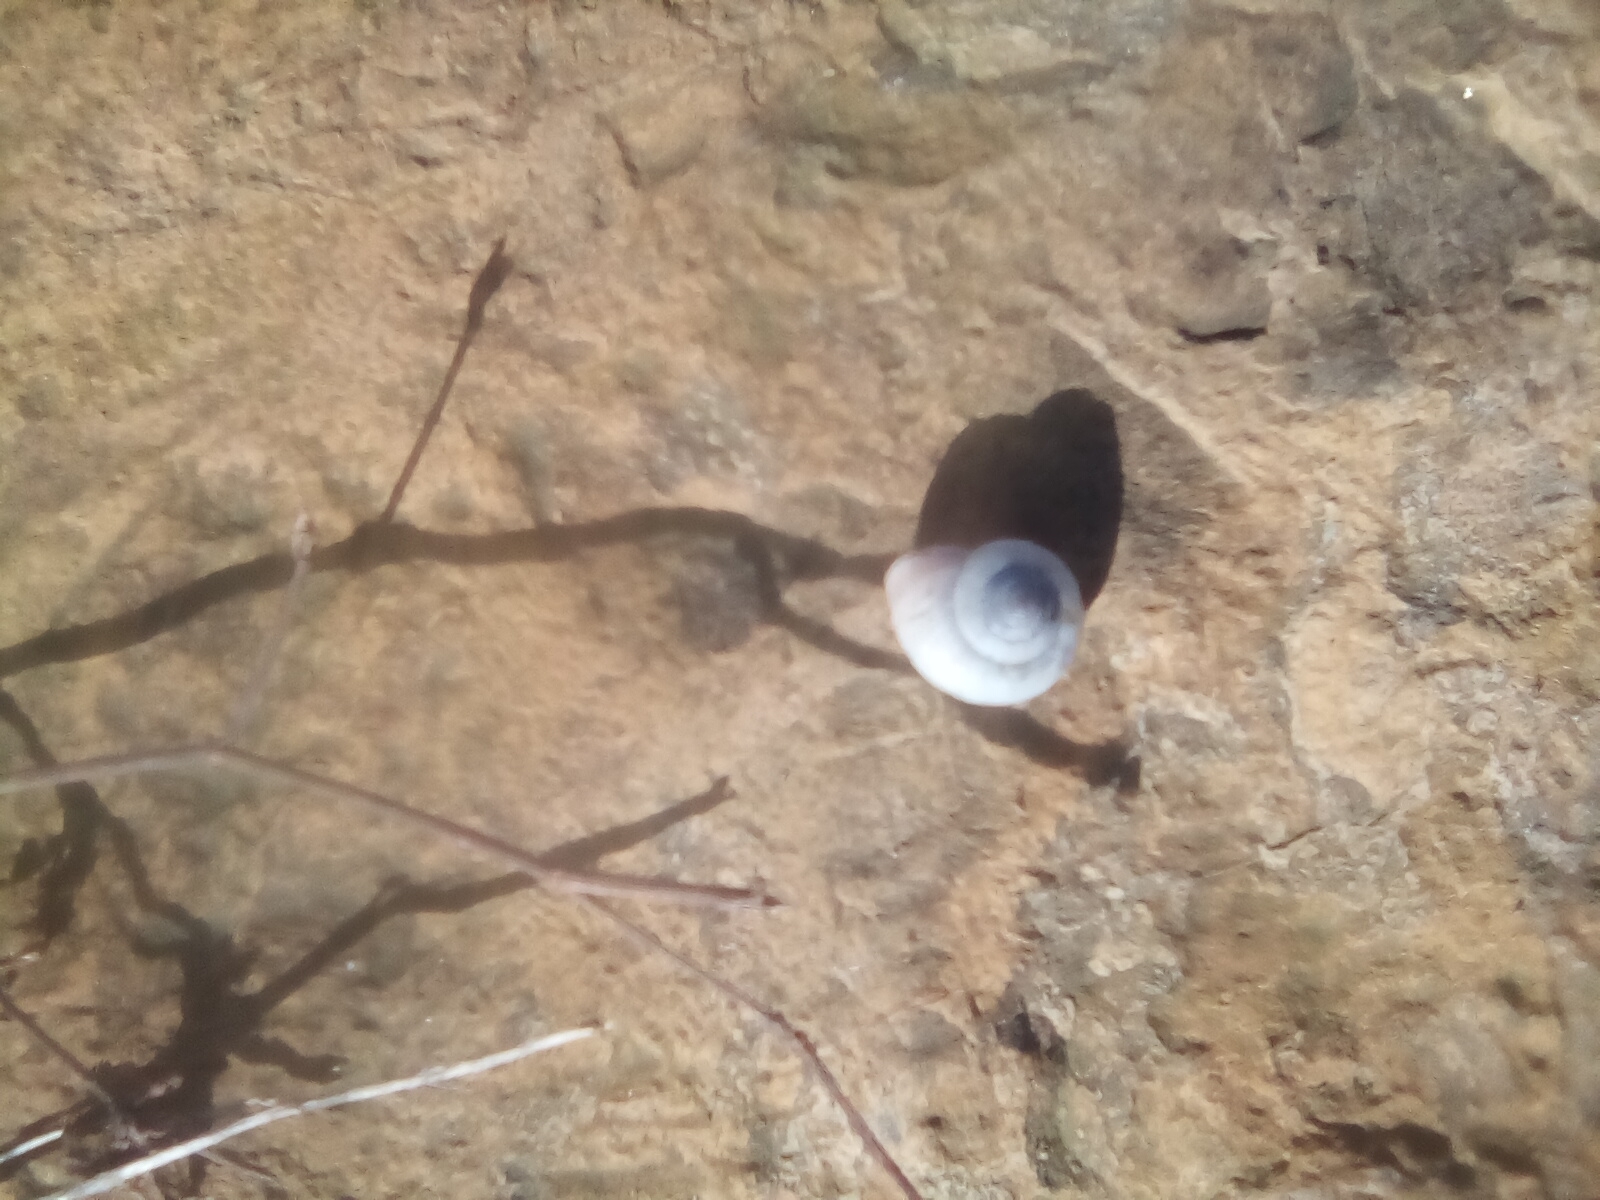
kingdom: Animalia
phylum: Mollusca
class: Gastropoda
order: Stylommatophora
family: Hygromiidae
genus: Monacha
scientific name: Monacha cartusiana
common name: Carthusian snail
